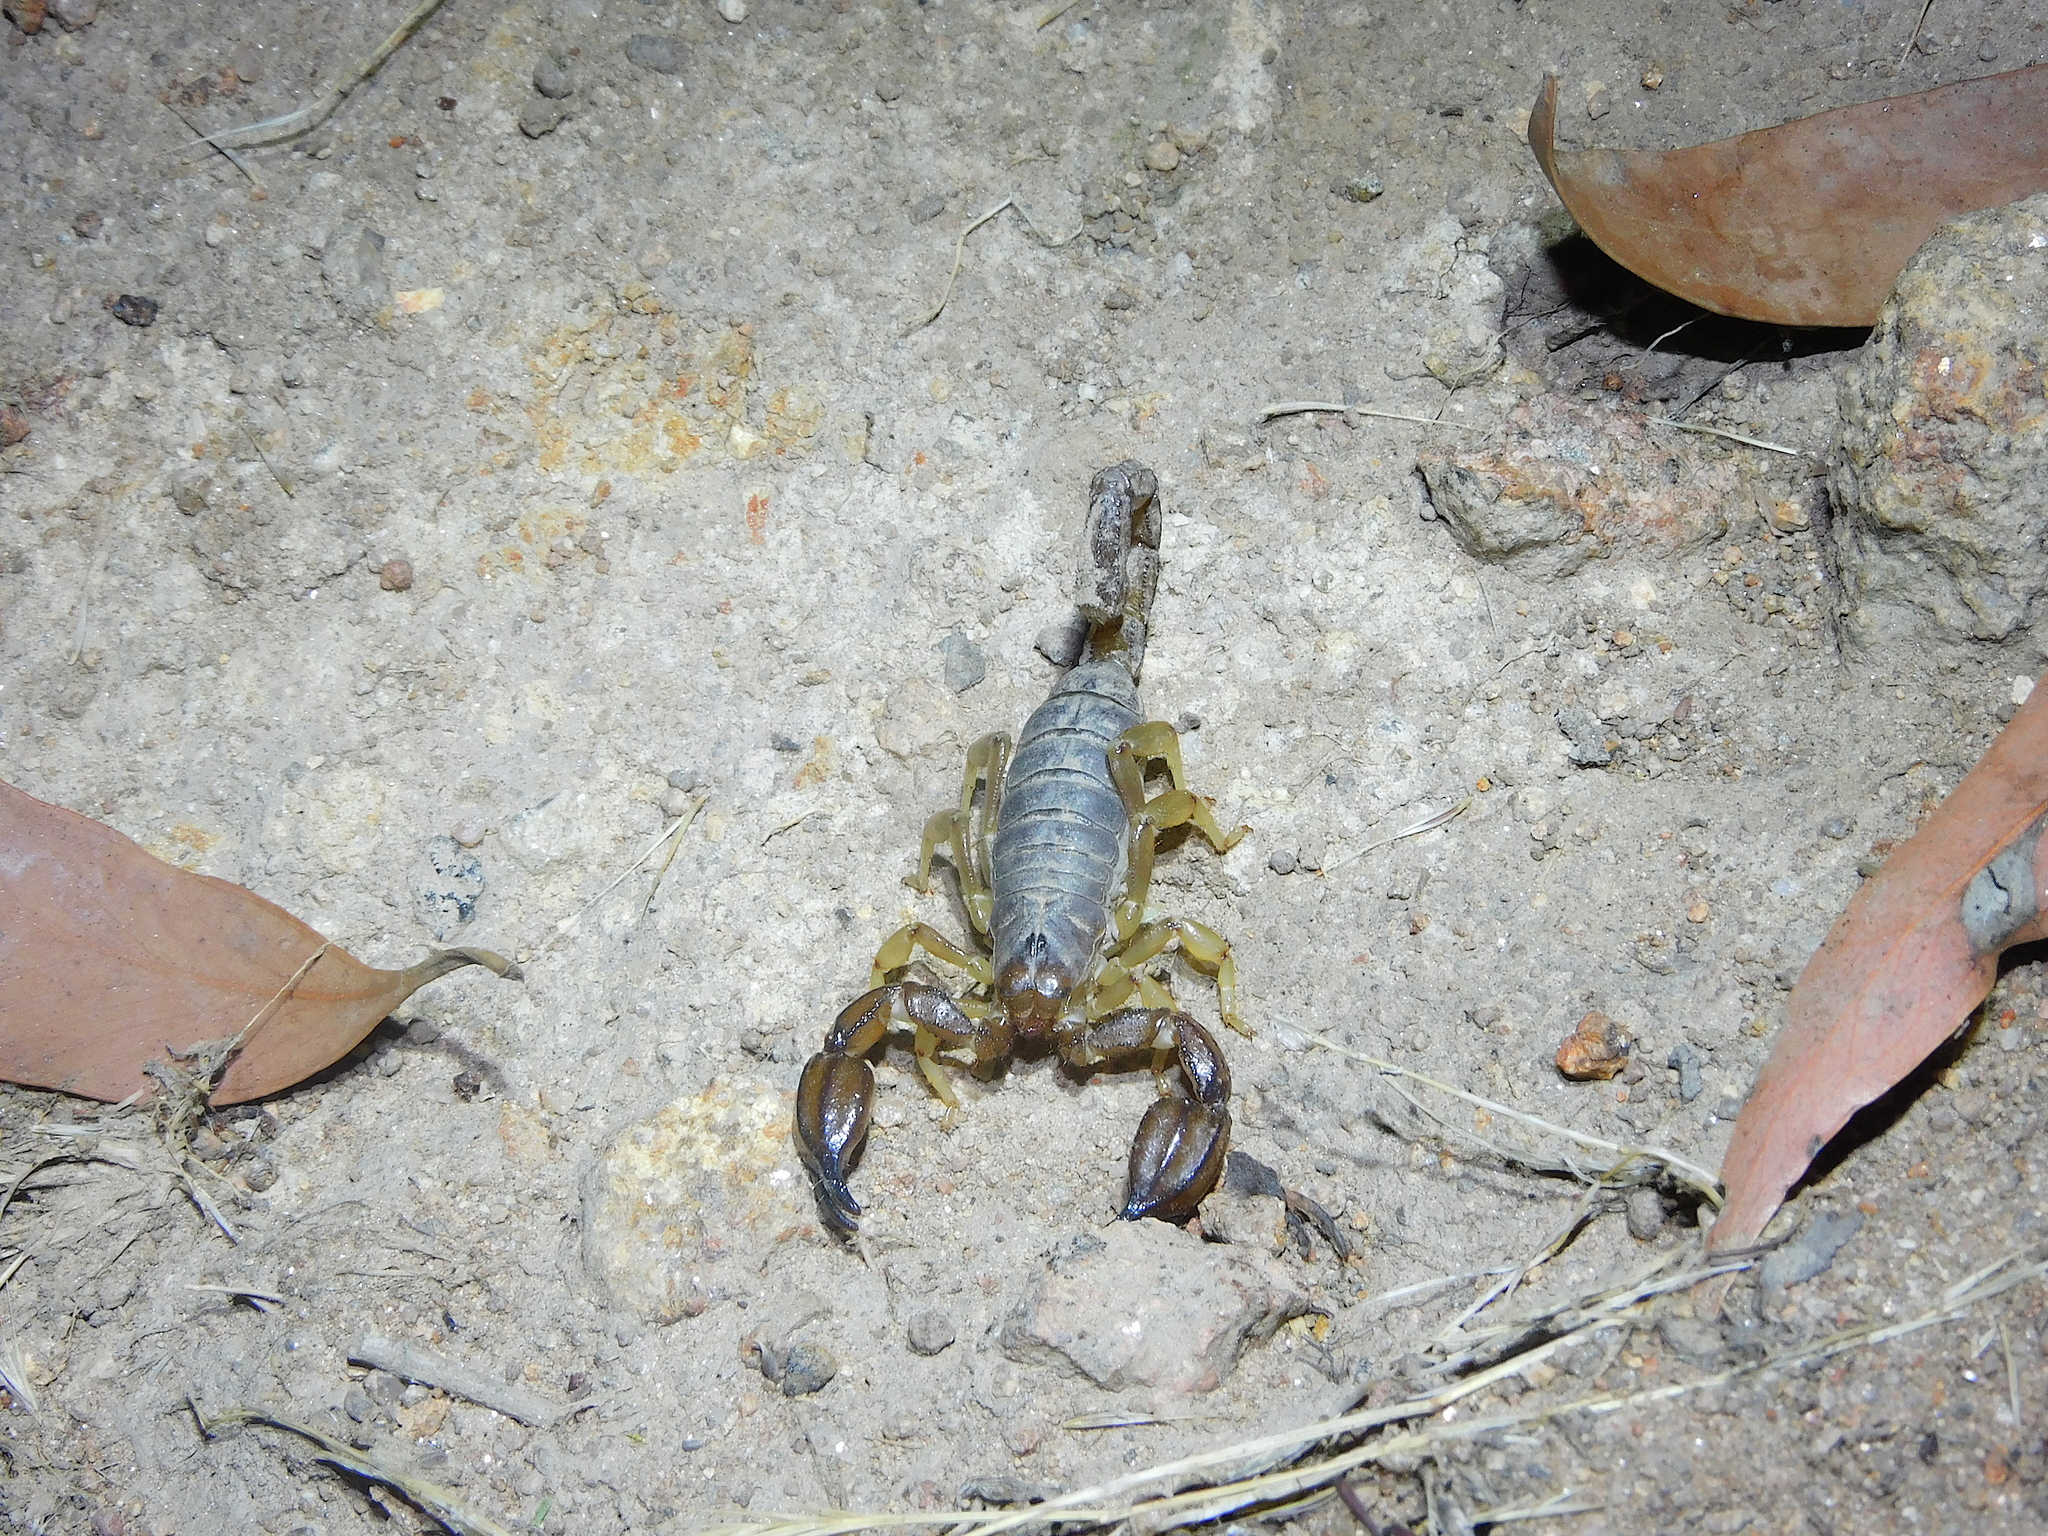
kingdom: Animalia
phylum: Arthropoda
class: Arachnida
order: Scorpiones
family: Scorpionidae
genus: Urodacus
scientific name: Urodacus manicatus
